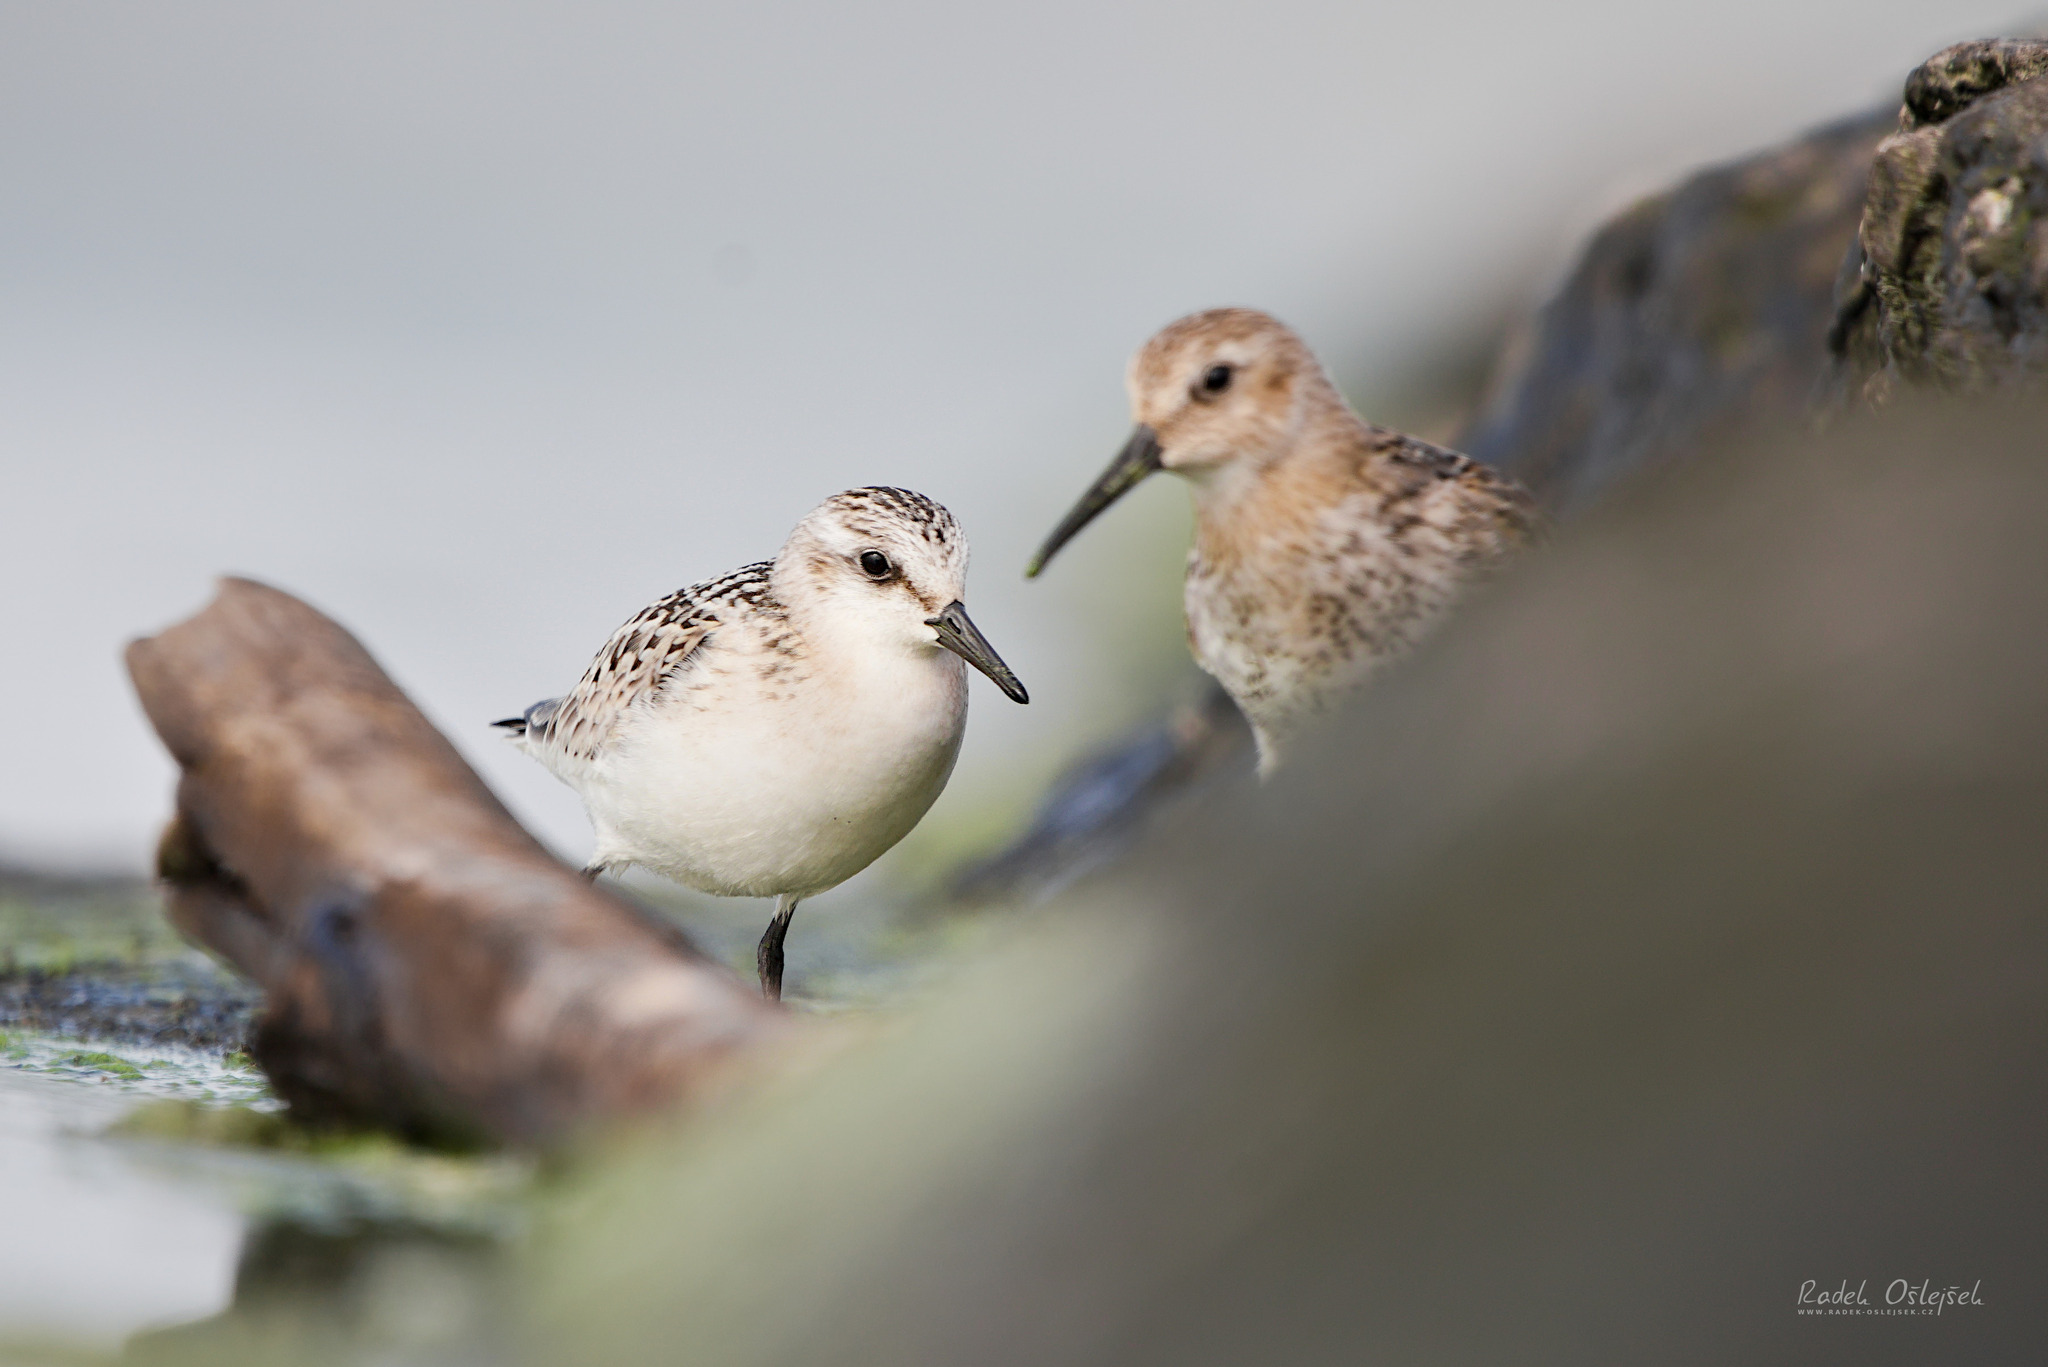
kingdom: Animalia
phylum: Chordata
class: Aves
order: Charadriiformes
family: Scolopacidae
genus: Calidris
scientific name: Calidris alba
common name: Sanderling
